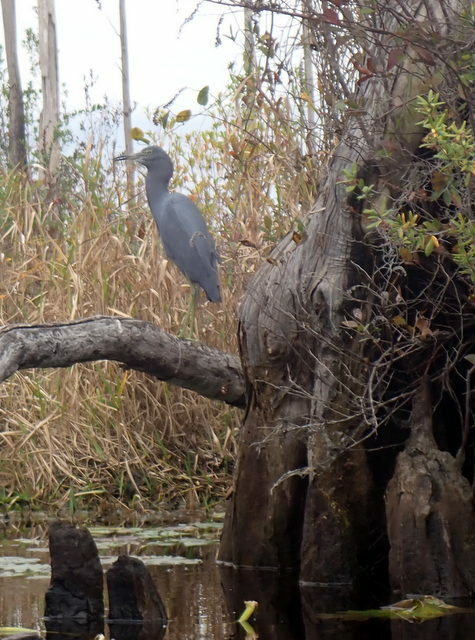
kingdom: Animalia
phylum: Chordata
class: Aves
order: Pelecaniformes
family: Ardeidae
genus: Egretta
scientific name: Egretta caerulea
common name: Little blue heron
